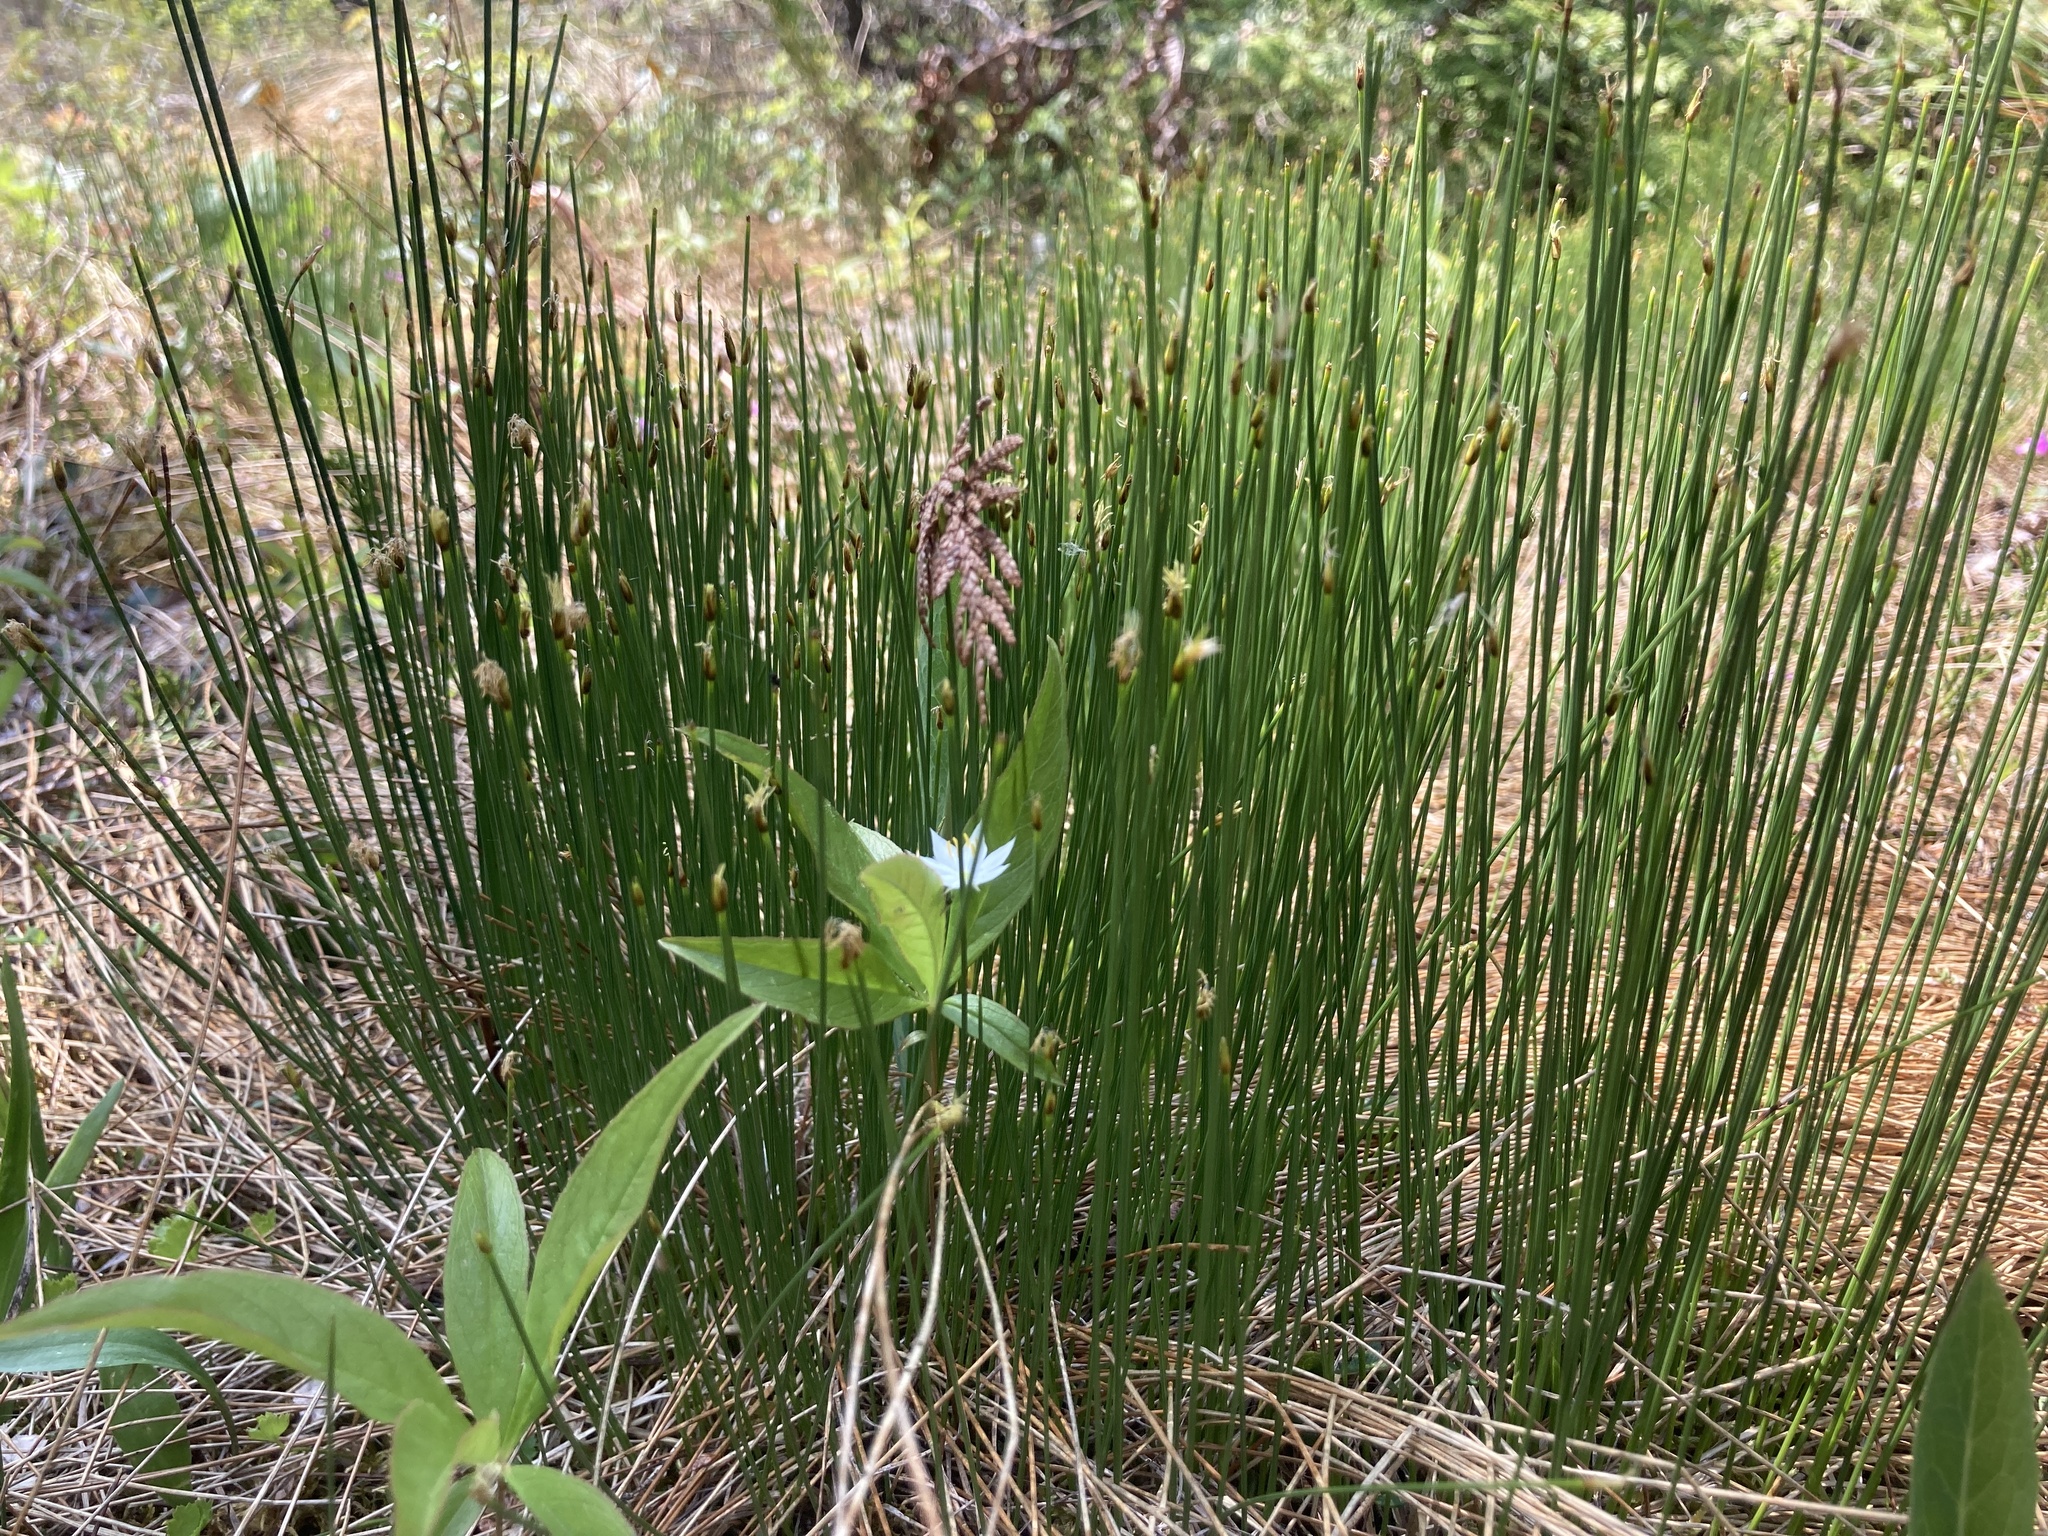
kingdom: Plantae
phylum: Tracheophyta
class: Liliopsida
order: Poales
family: Cyperaceae
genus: Trichophorum
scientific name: Trichophorum cespitosum
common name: Cespitose bulrush
